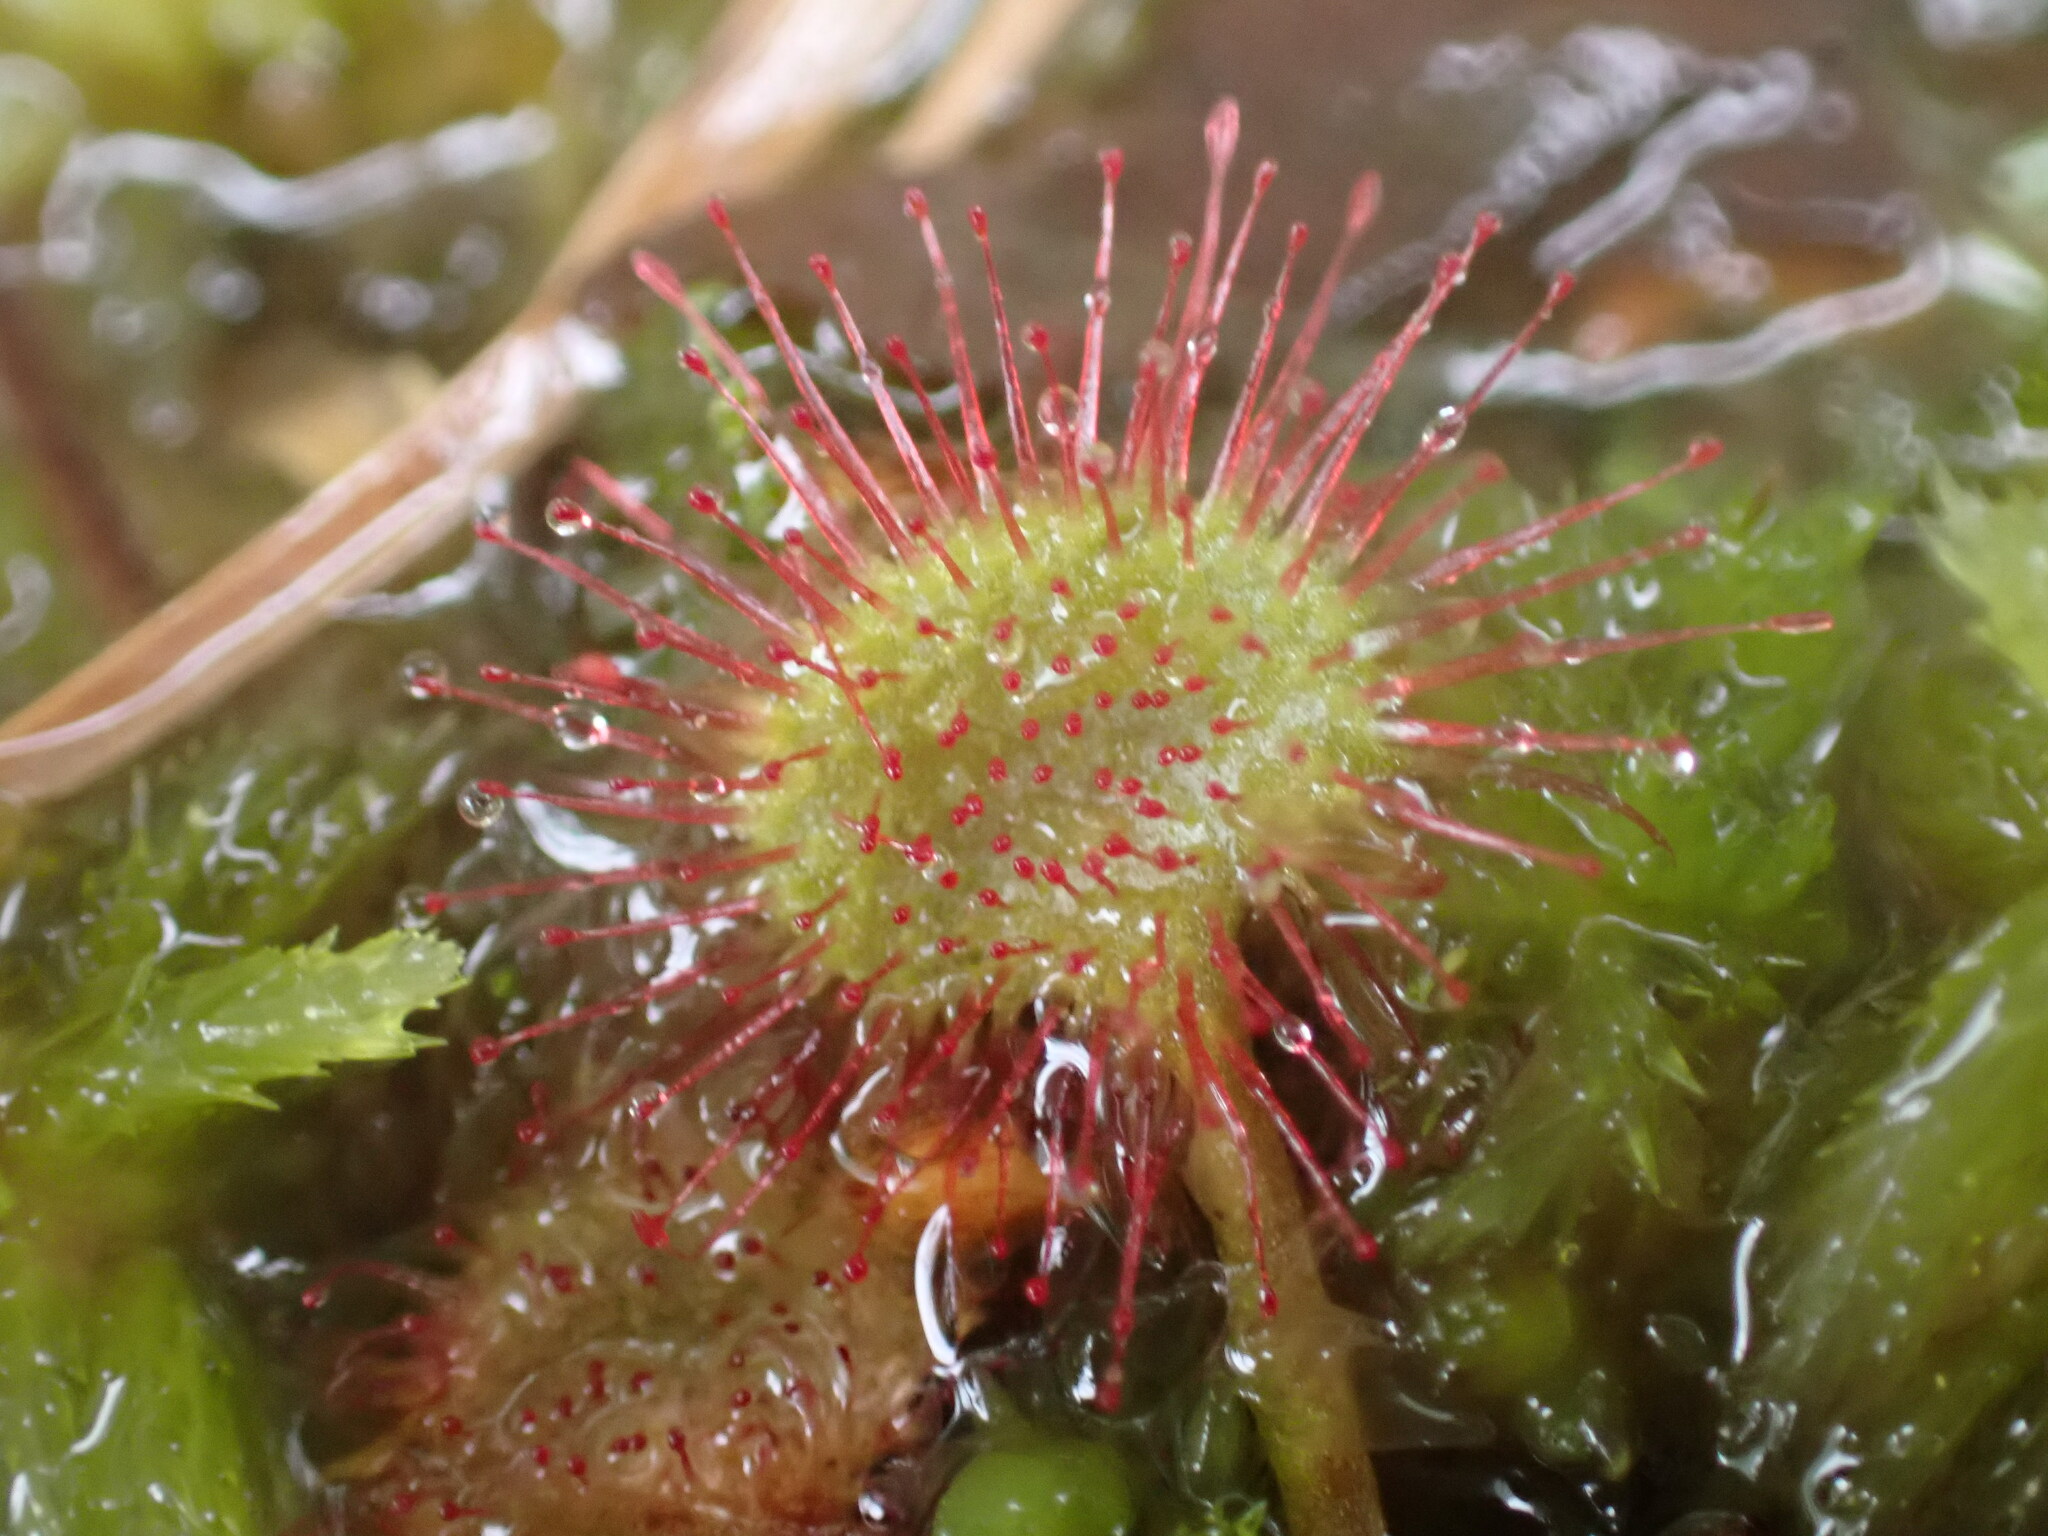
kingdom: Plantae
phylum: Tracheophyta
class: Magnoliopsida
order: Caryophyllales
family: Droseraceae
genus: Drosera
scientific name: Drosera rotundifolia
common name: Round-leaved sundew
